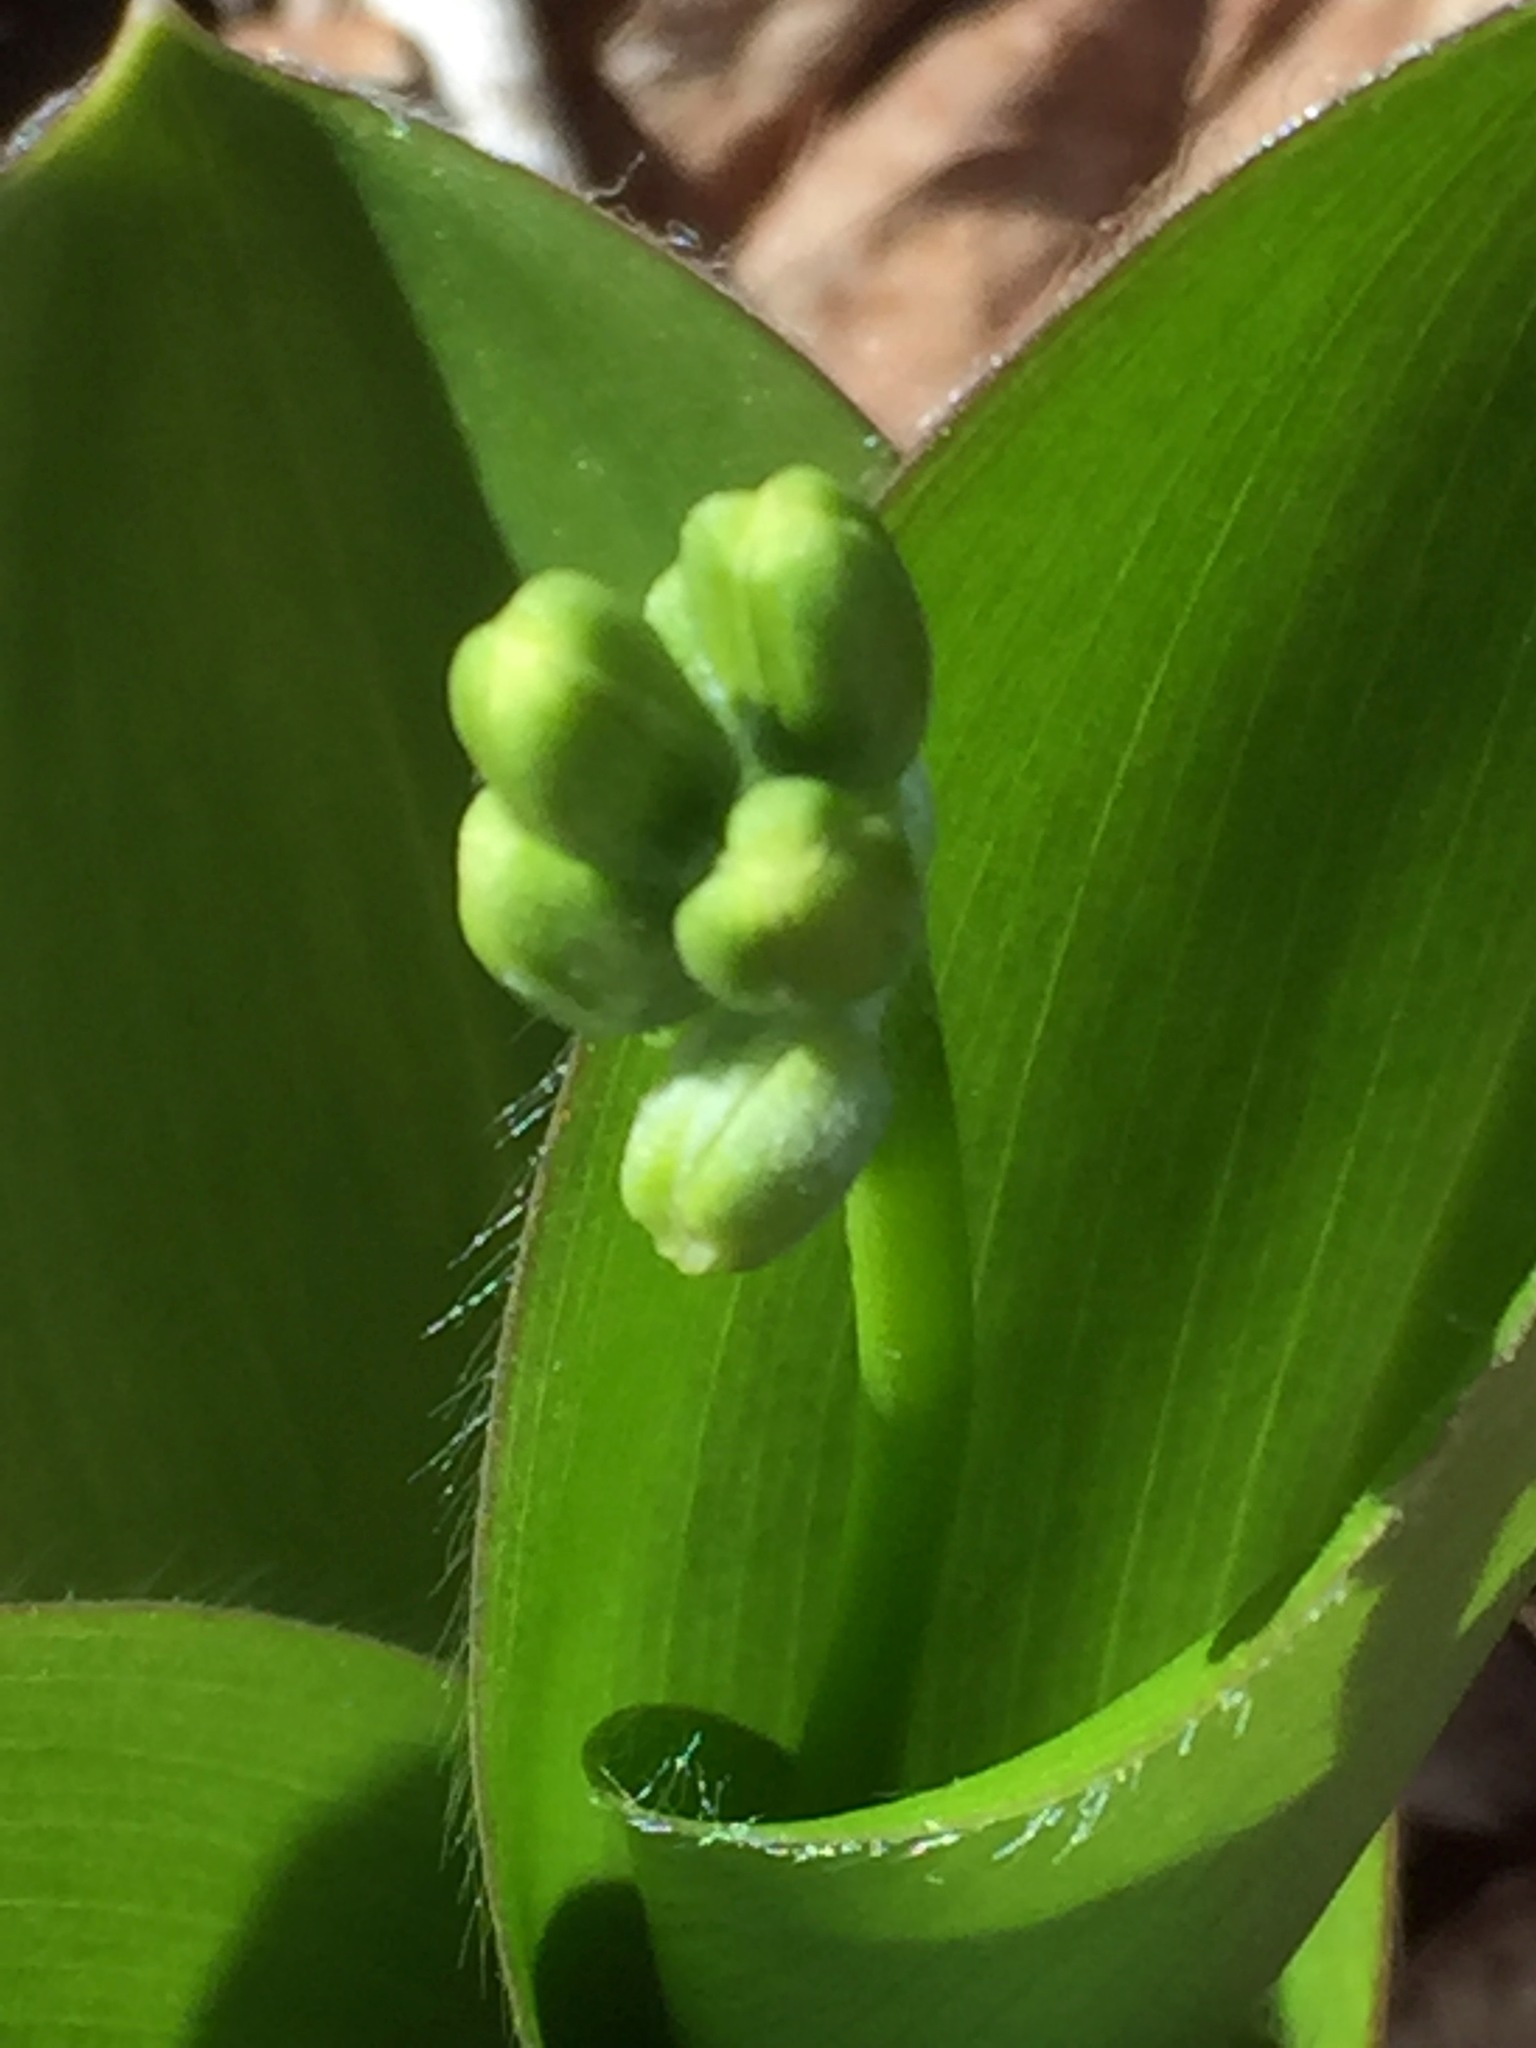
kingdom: Plantae
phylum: Tracheophyta
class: Liliopsida
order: Liliales
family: Liliaceae
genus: Clintonia
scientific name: Clintonia borealis
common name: Yellow clintonia
